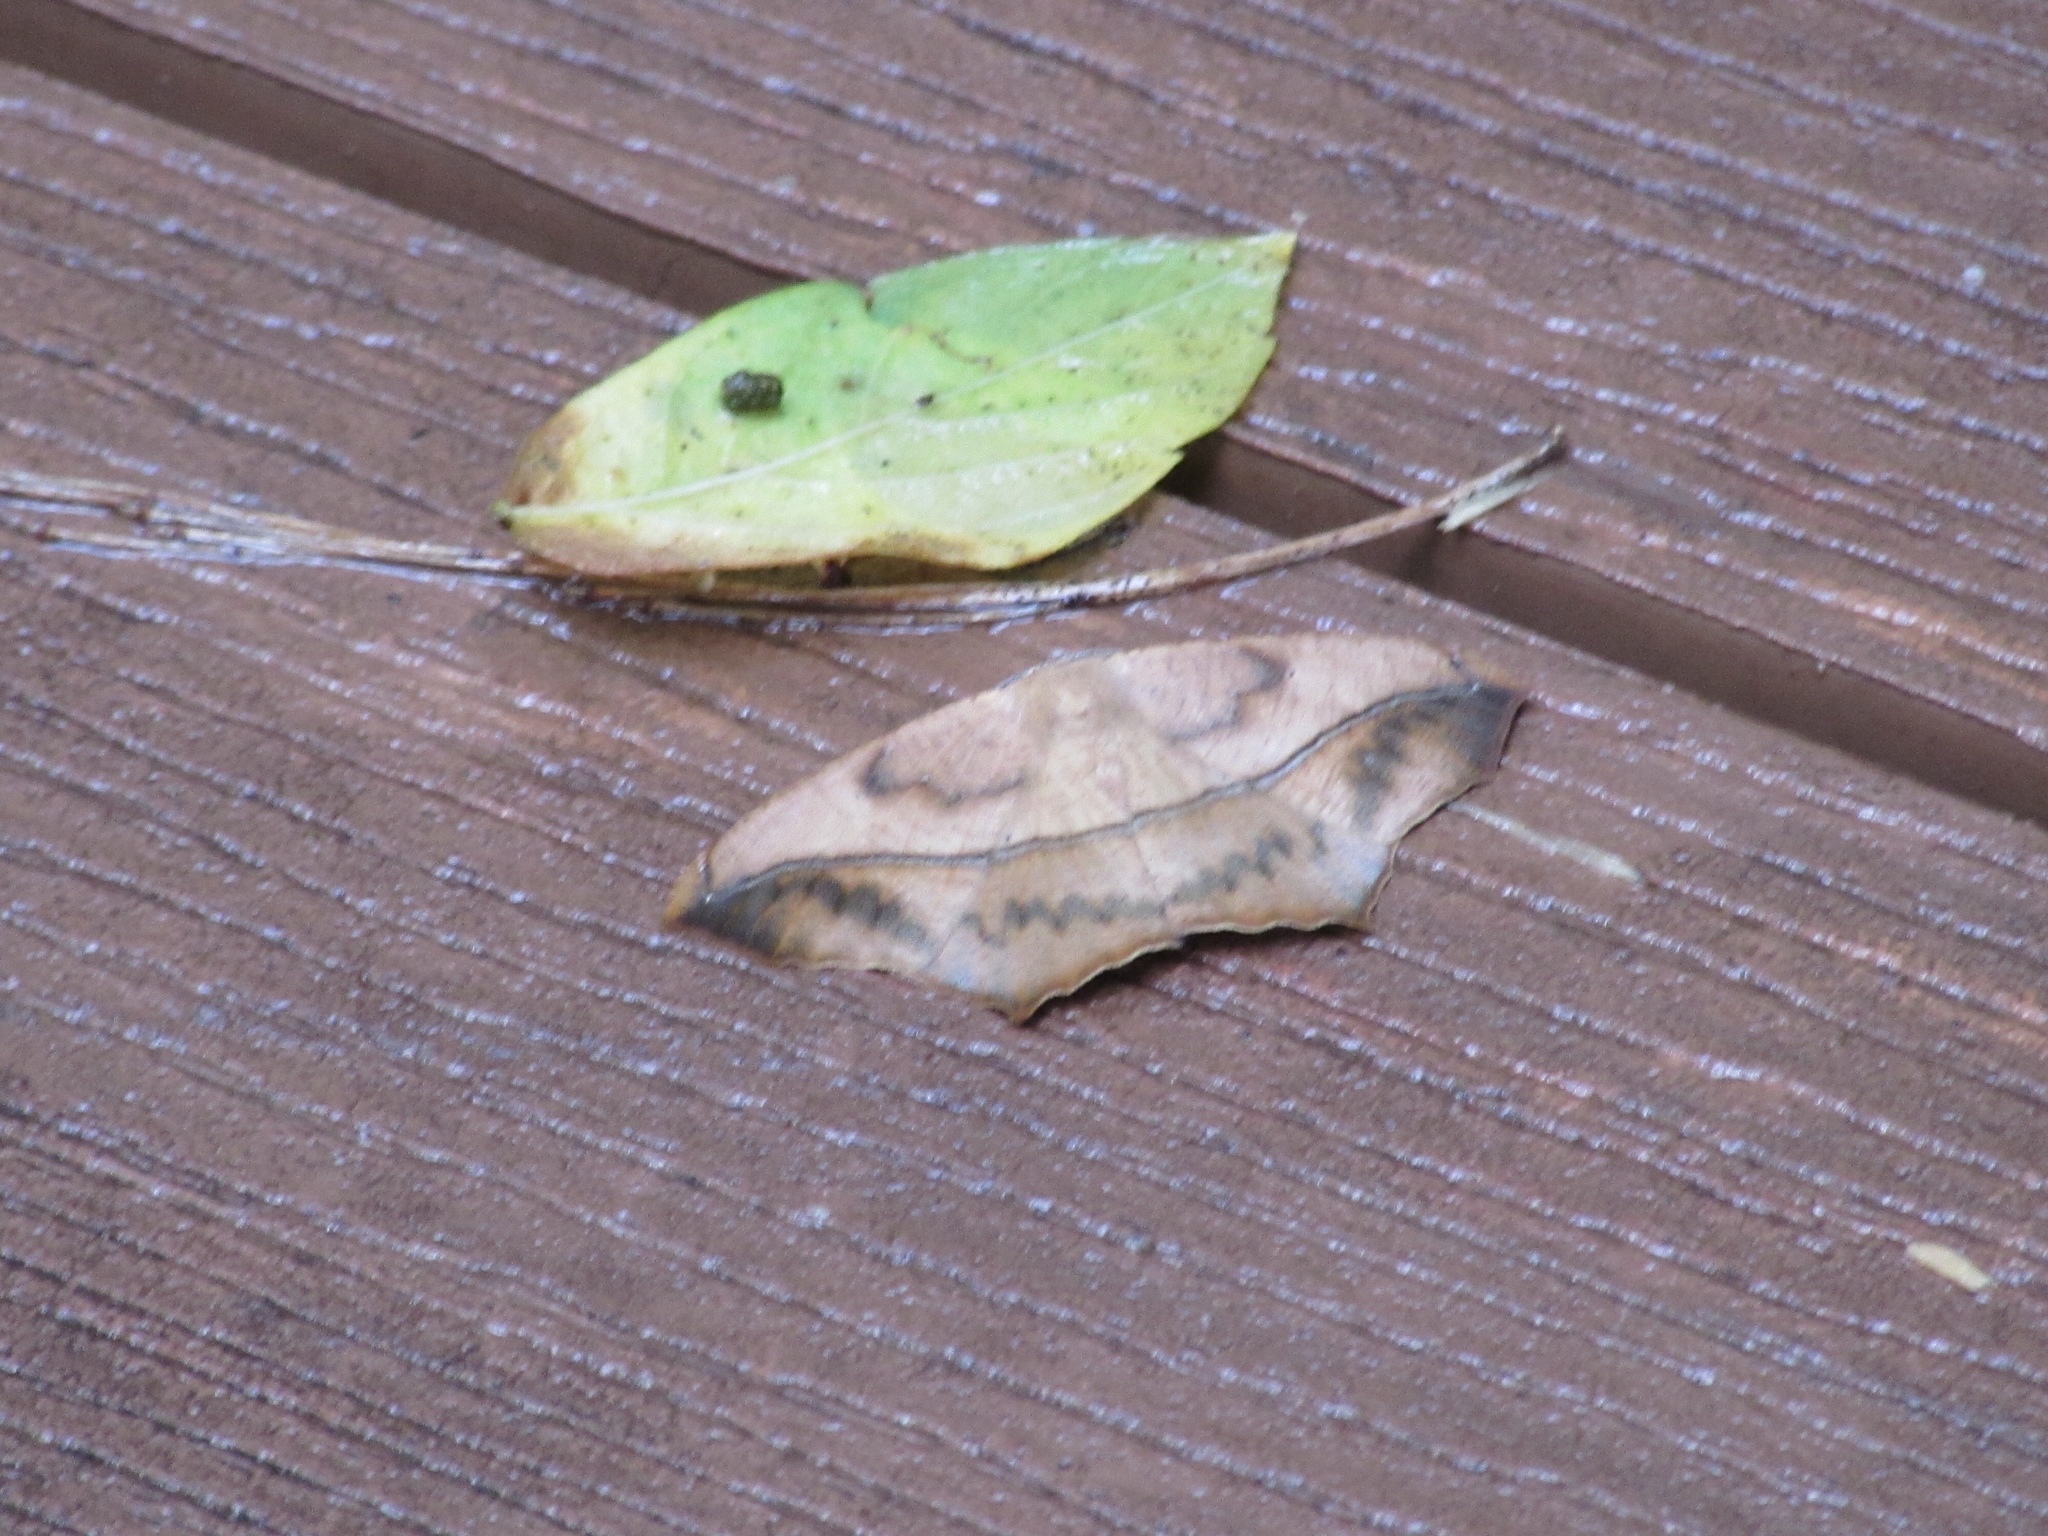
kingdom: Animalia
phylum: Arthropoda
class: Insecta
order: Lepidoptera
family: Geometridae
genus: Prochoerodes
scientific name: Prochoerodes lineola
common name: Large maple spanworm
